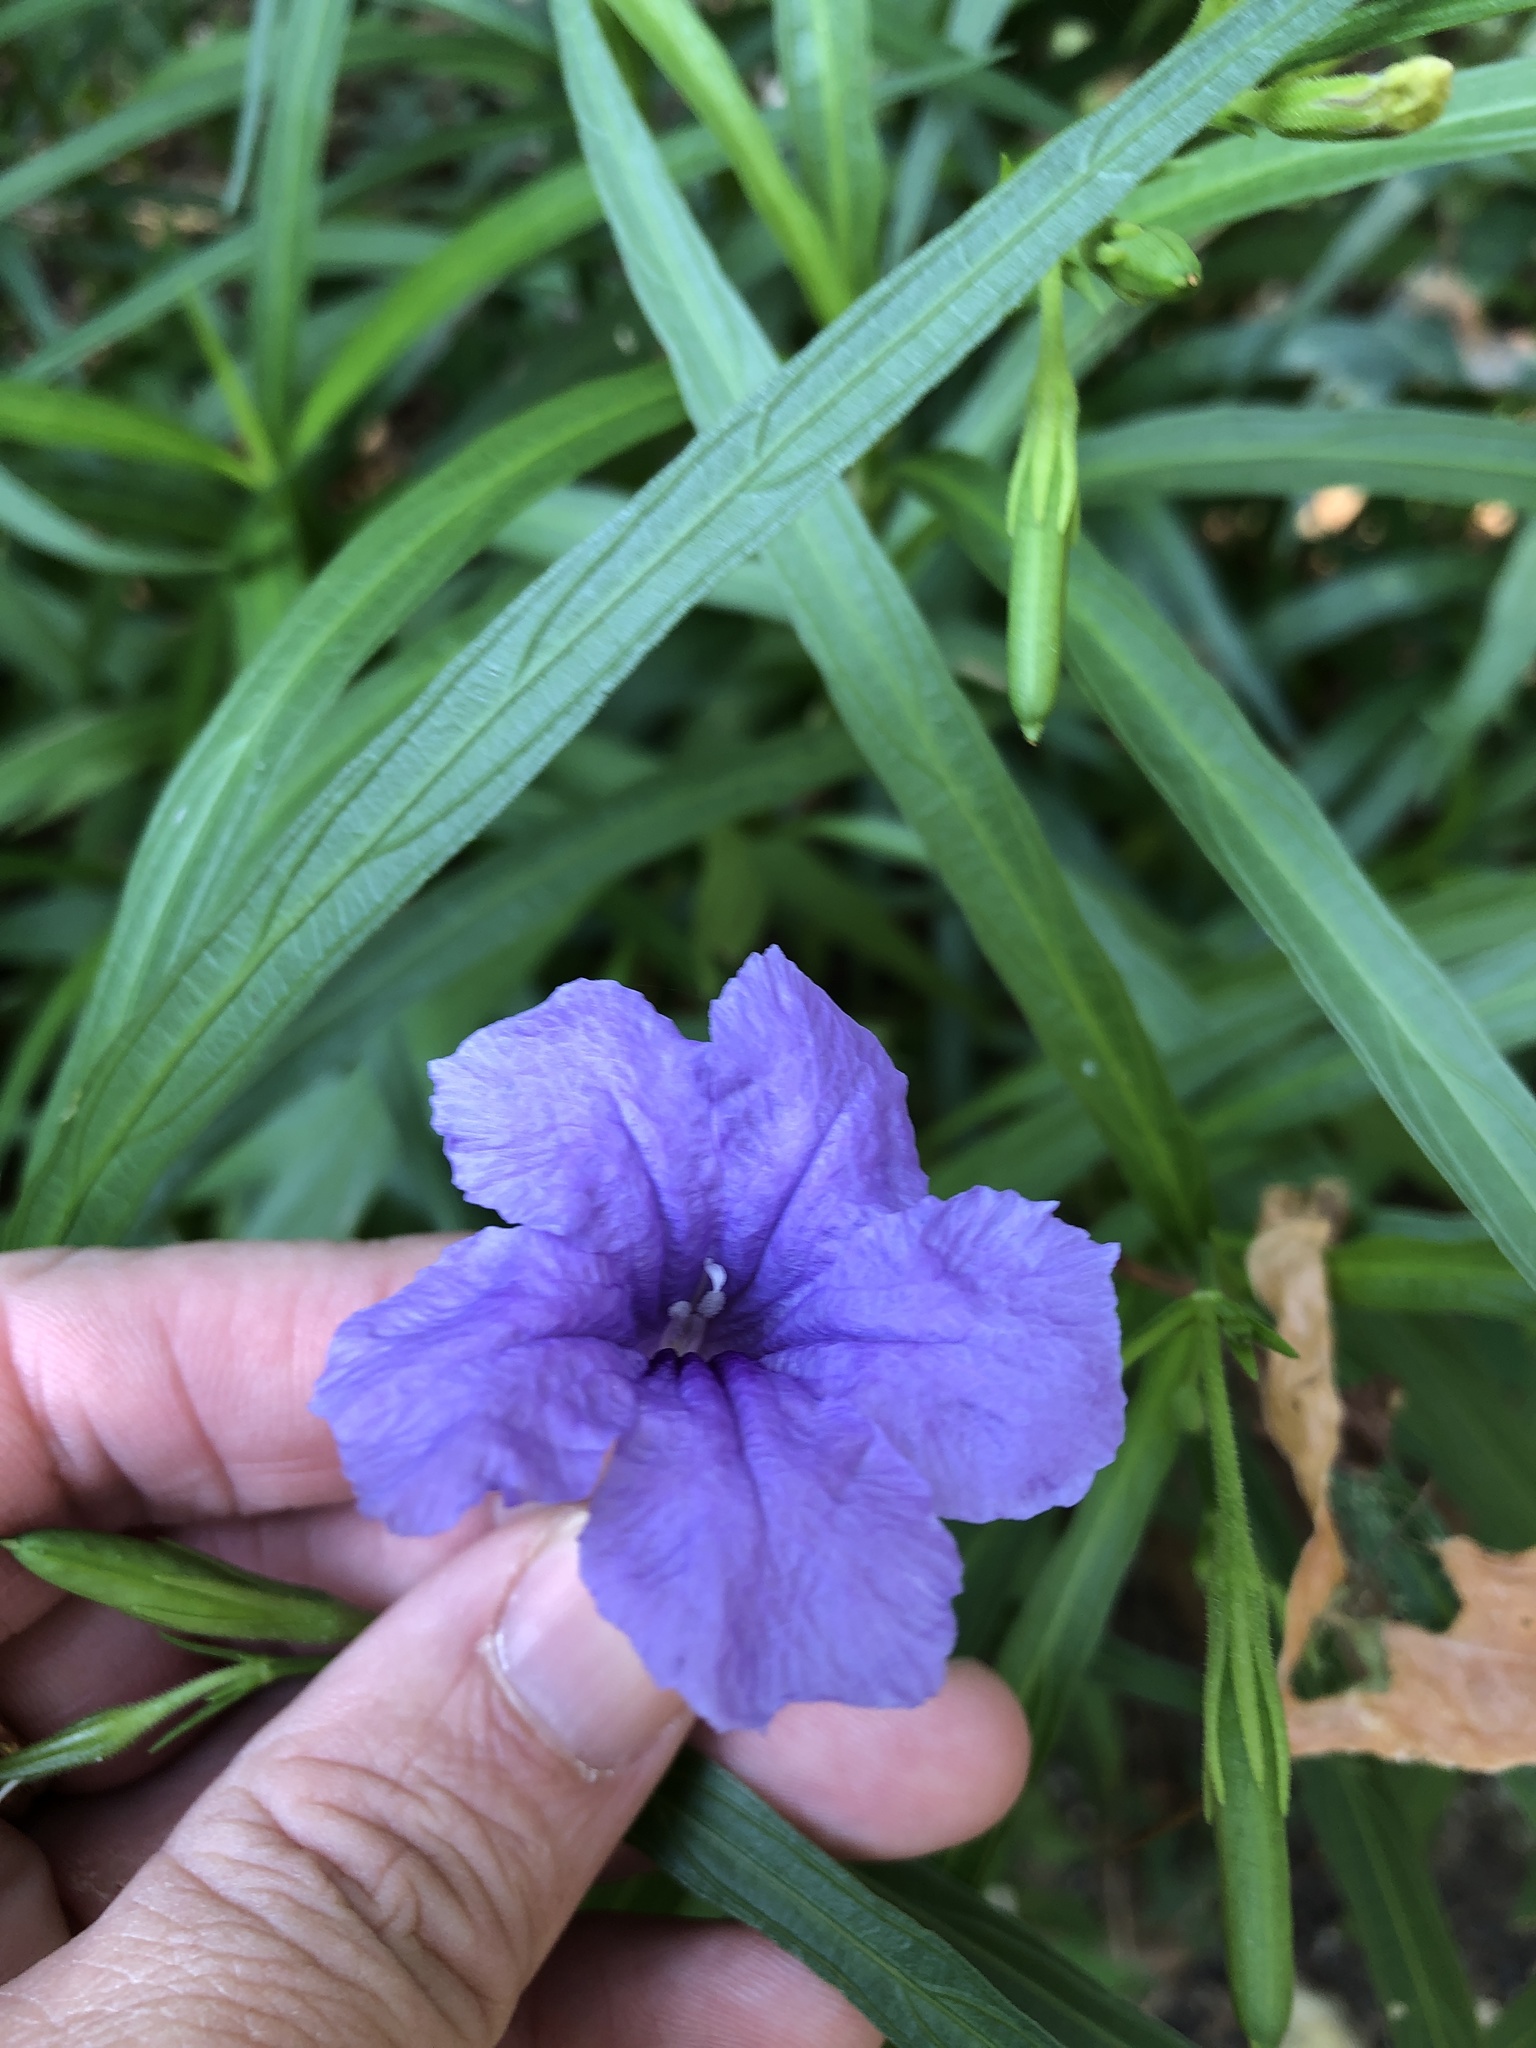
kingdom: Plantae
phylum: Tracheophyta
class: Magnoliopsida
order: Lamiales
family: Acanthaceae
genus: Ruellia
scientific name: Ruellia simplex
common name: Softseed wild petunia
